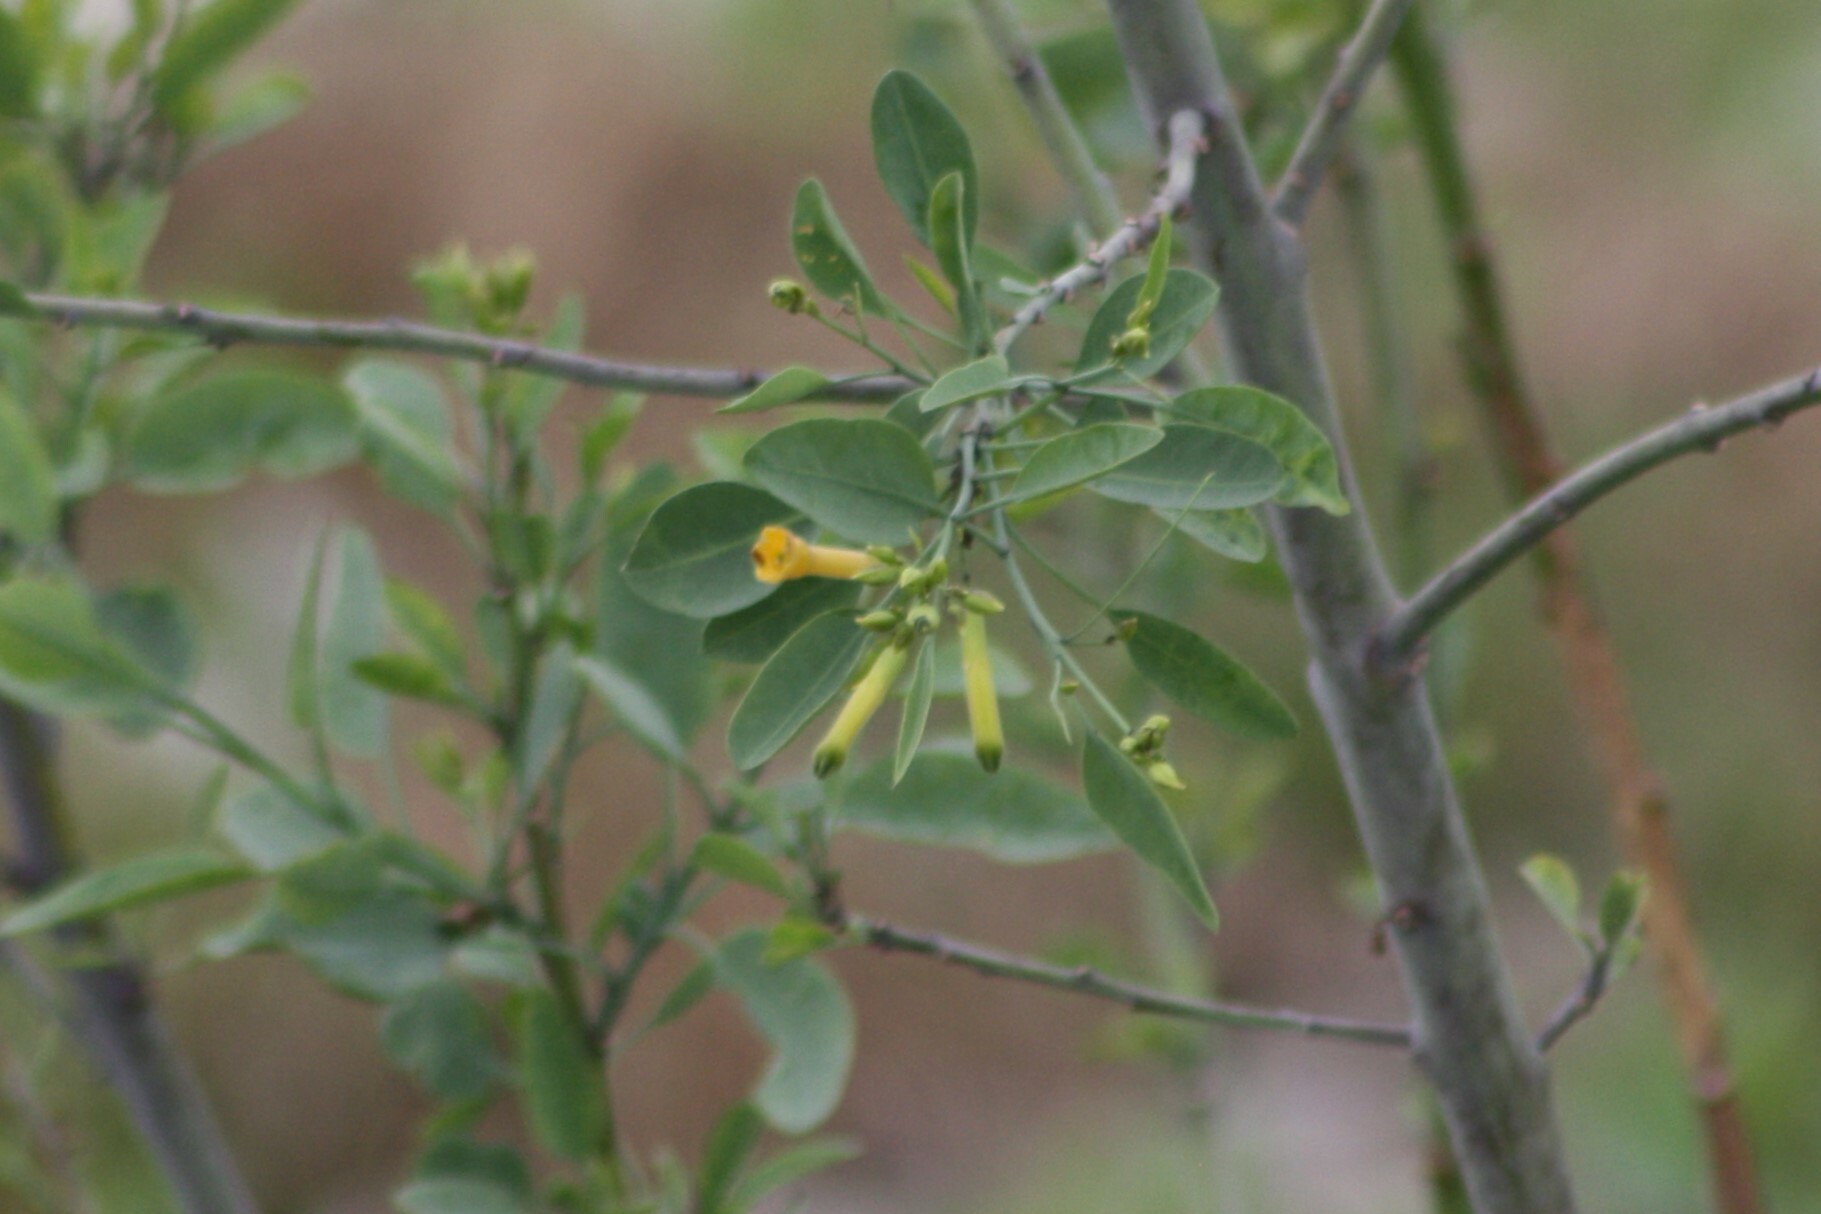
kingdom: Plantae
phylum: Tracheophyta
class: Magnoliopsida
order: Solanales
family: Solanaceae
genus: Nicotiana
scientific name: Nicotiana glauca
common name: Tree tobacco
